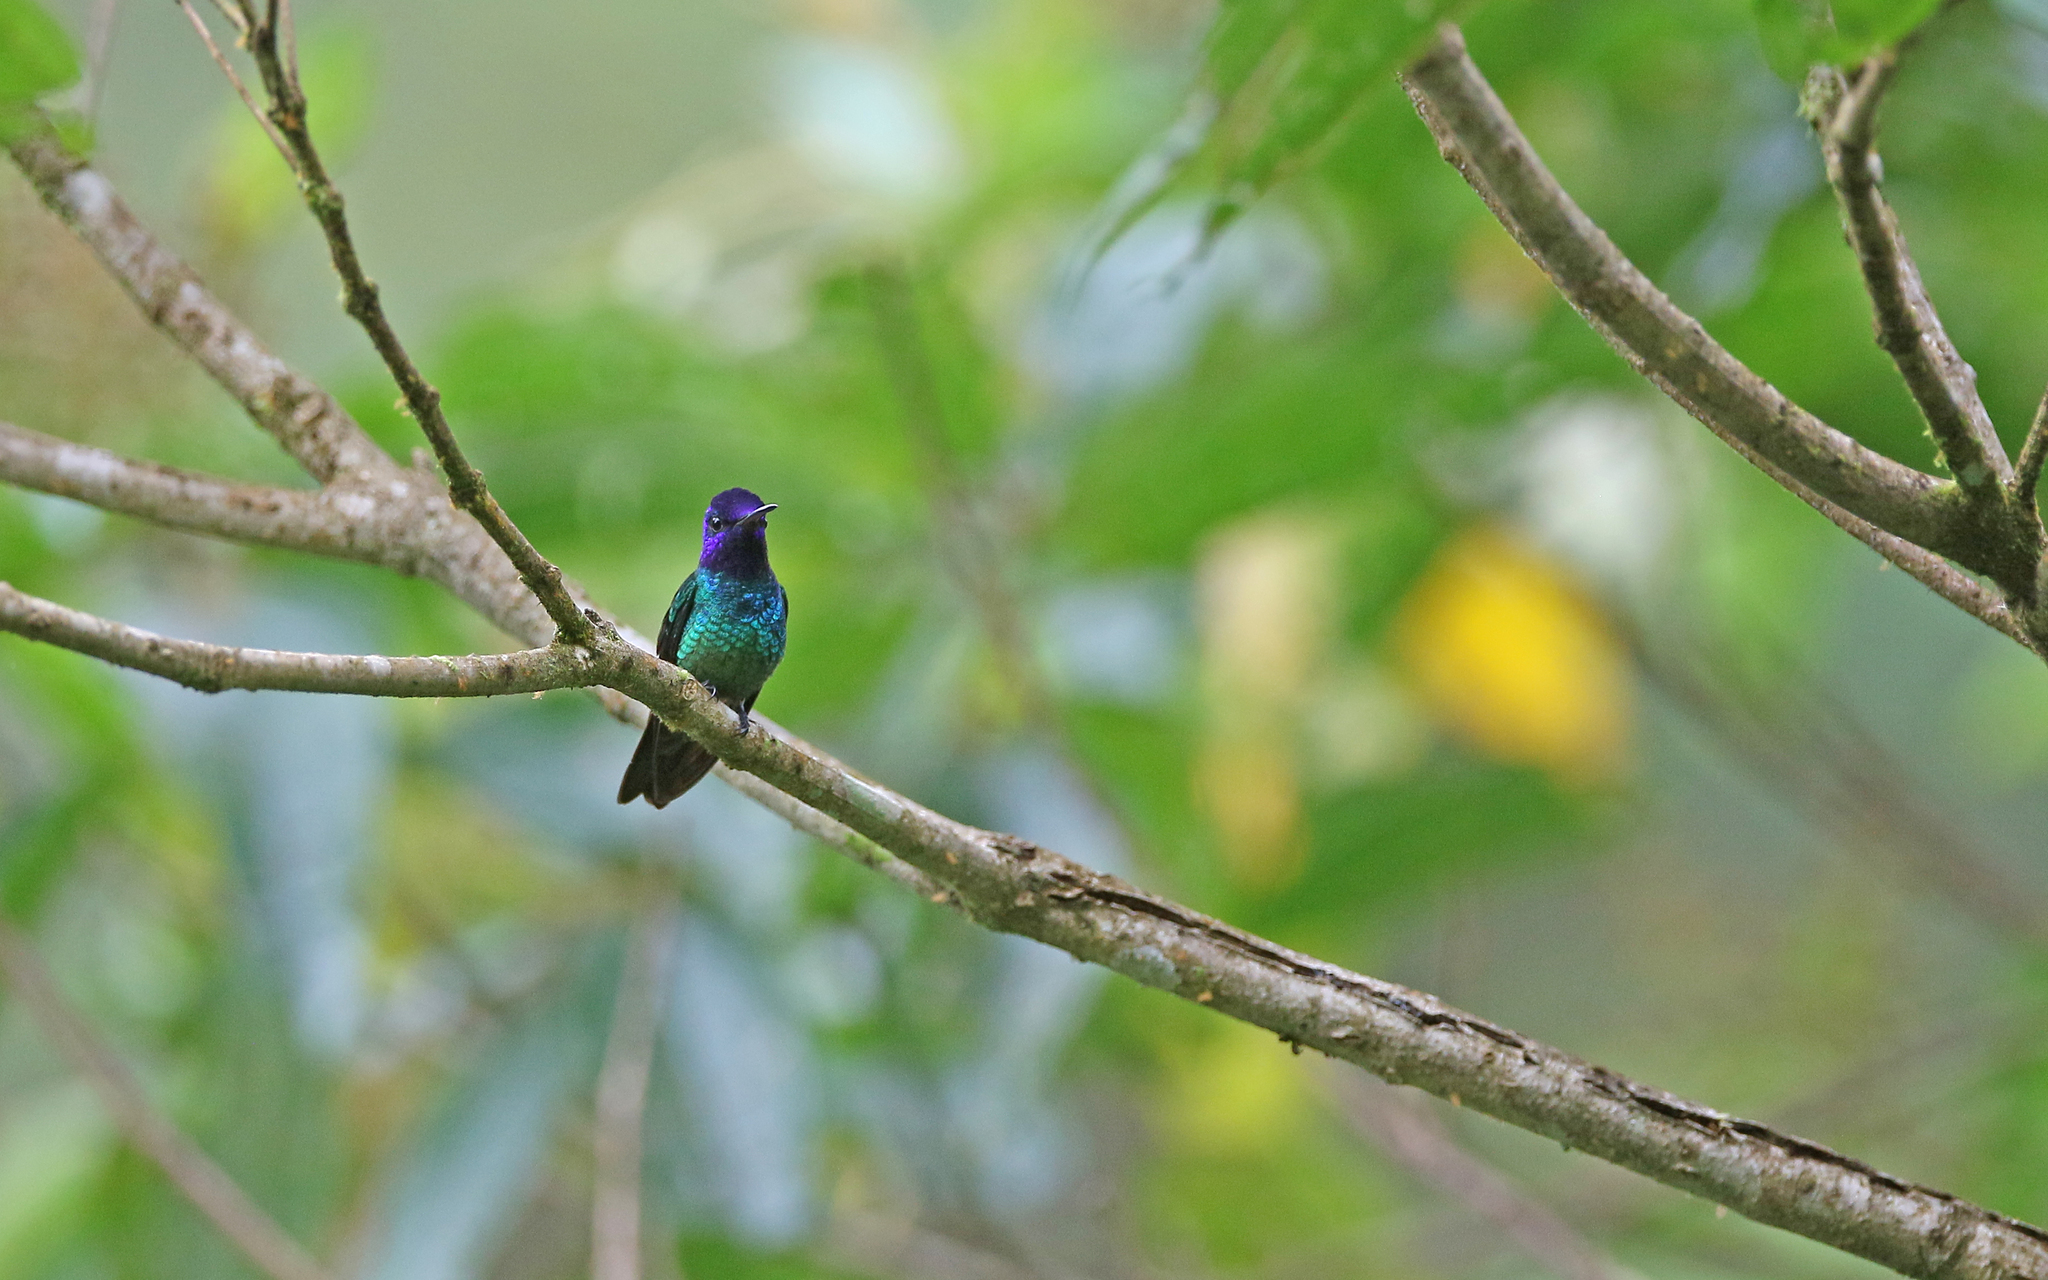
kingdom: Animalia
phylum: Chordata
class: Aves
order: Apodiformes
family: Trochilidae
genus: Chrysuronia
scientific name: Chrysuronia oenone
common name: Golden-tailed sapphire
